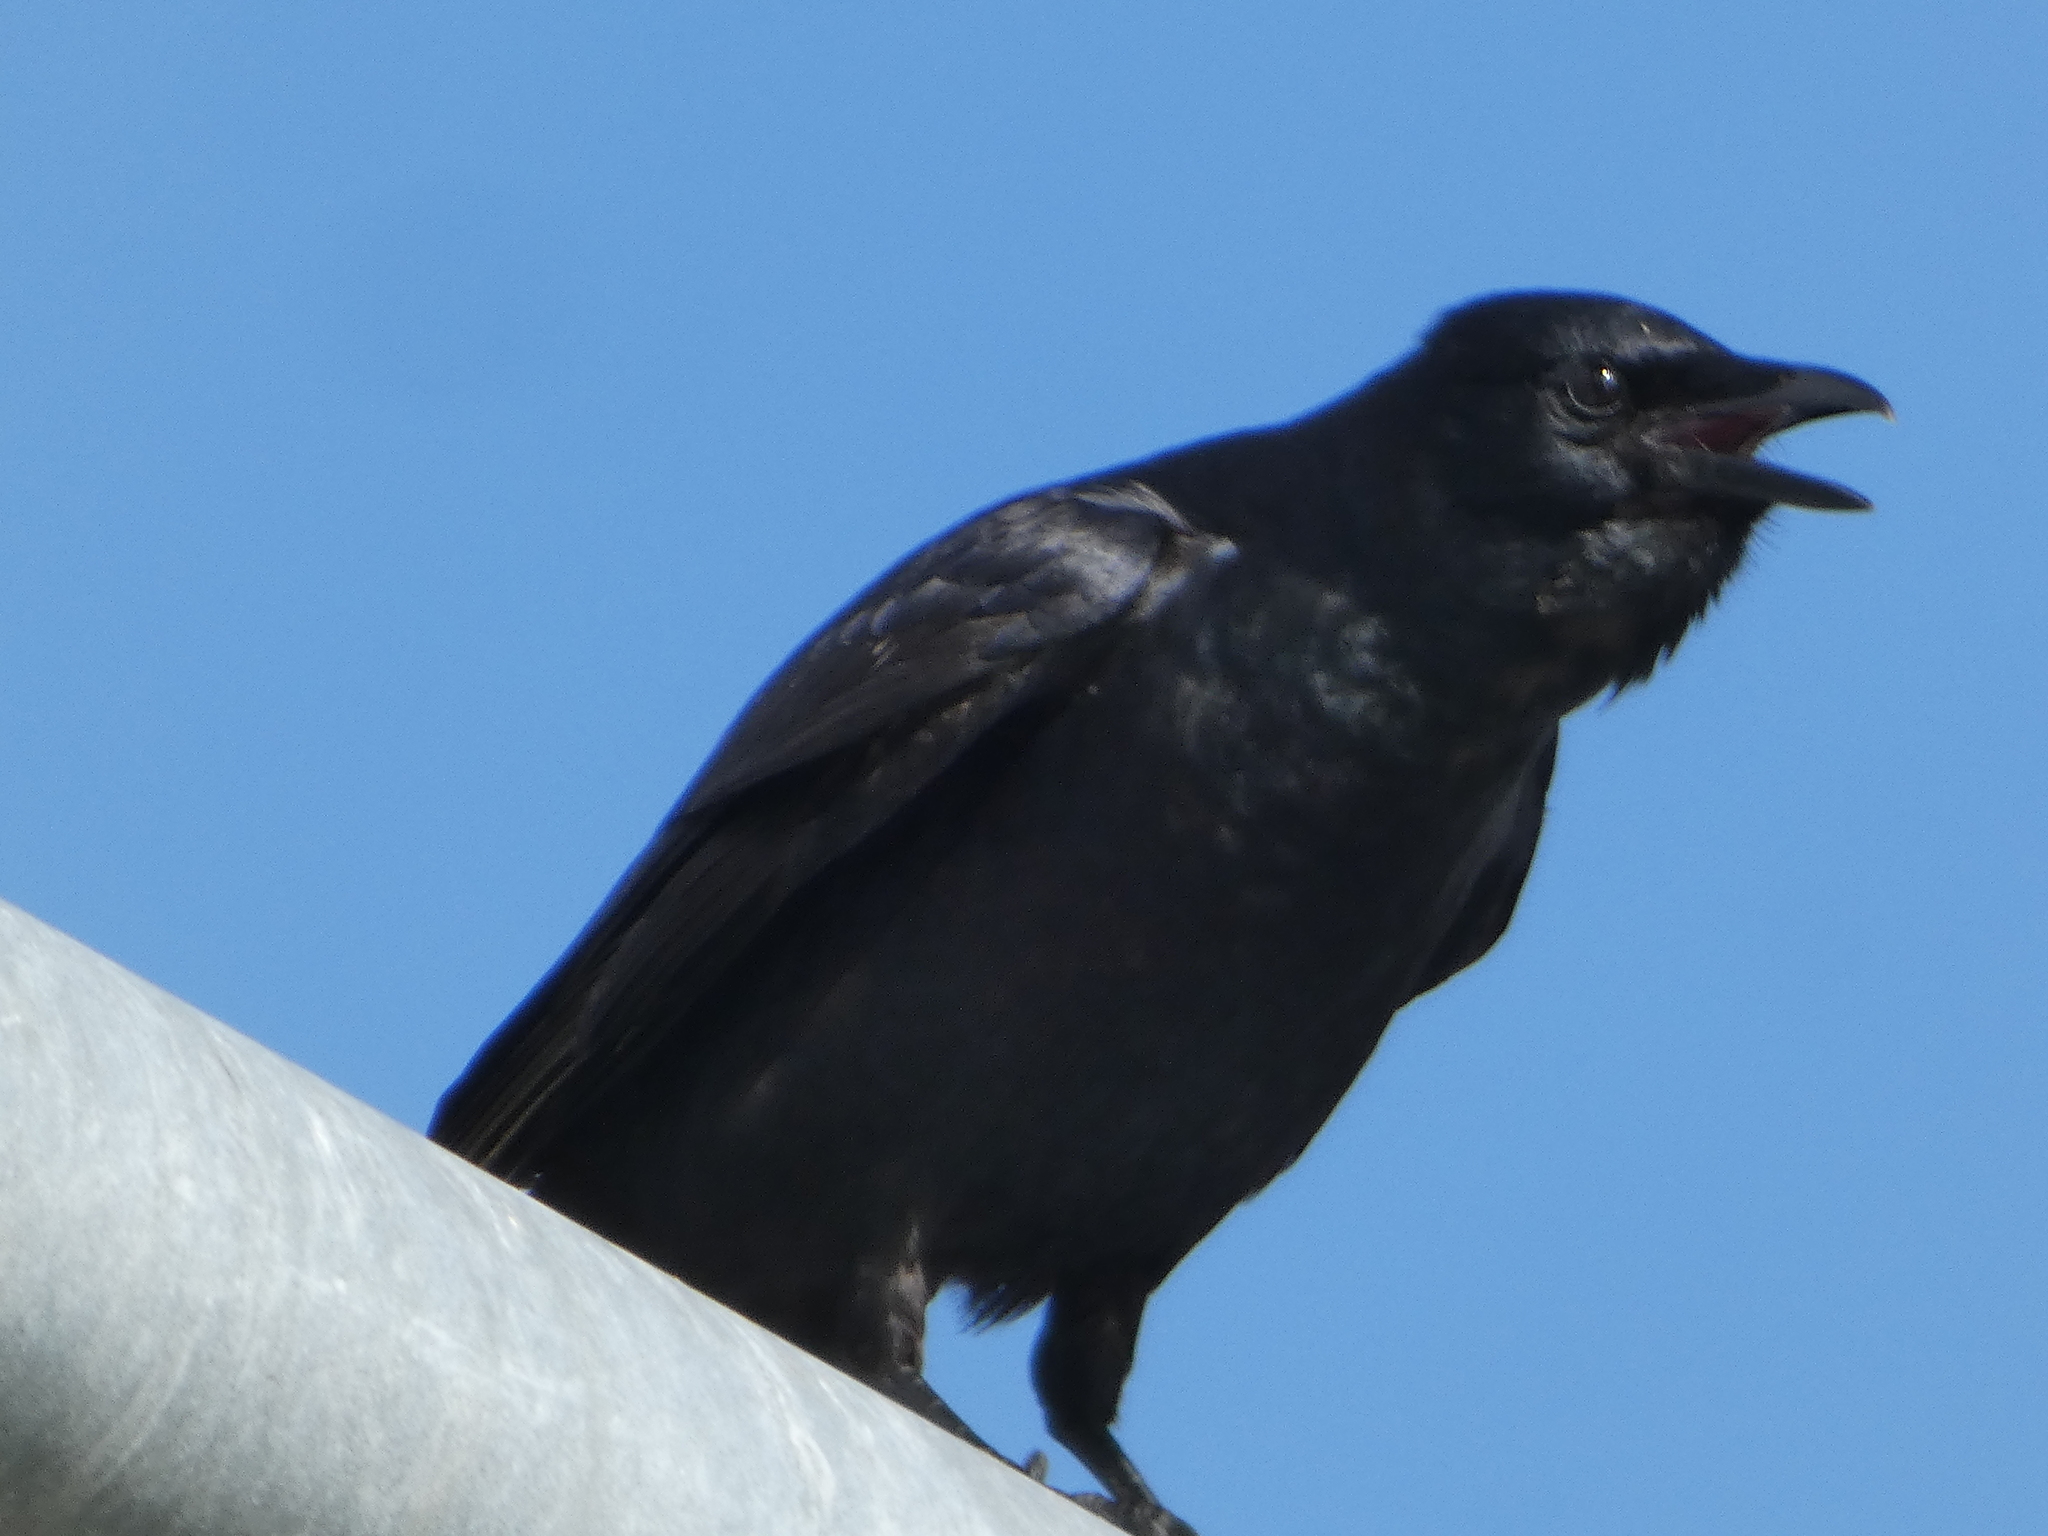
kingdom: Animalia
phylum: Chordata
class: Aves
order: Passeriformes
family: Corvidae
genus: Corvus
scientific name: Corvus brachyrhynchos
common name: American crow
